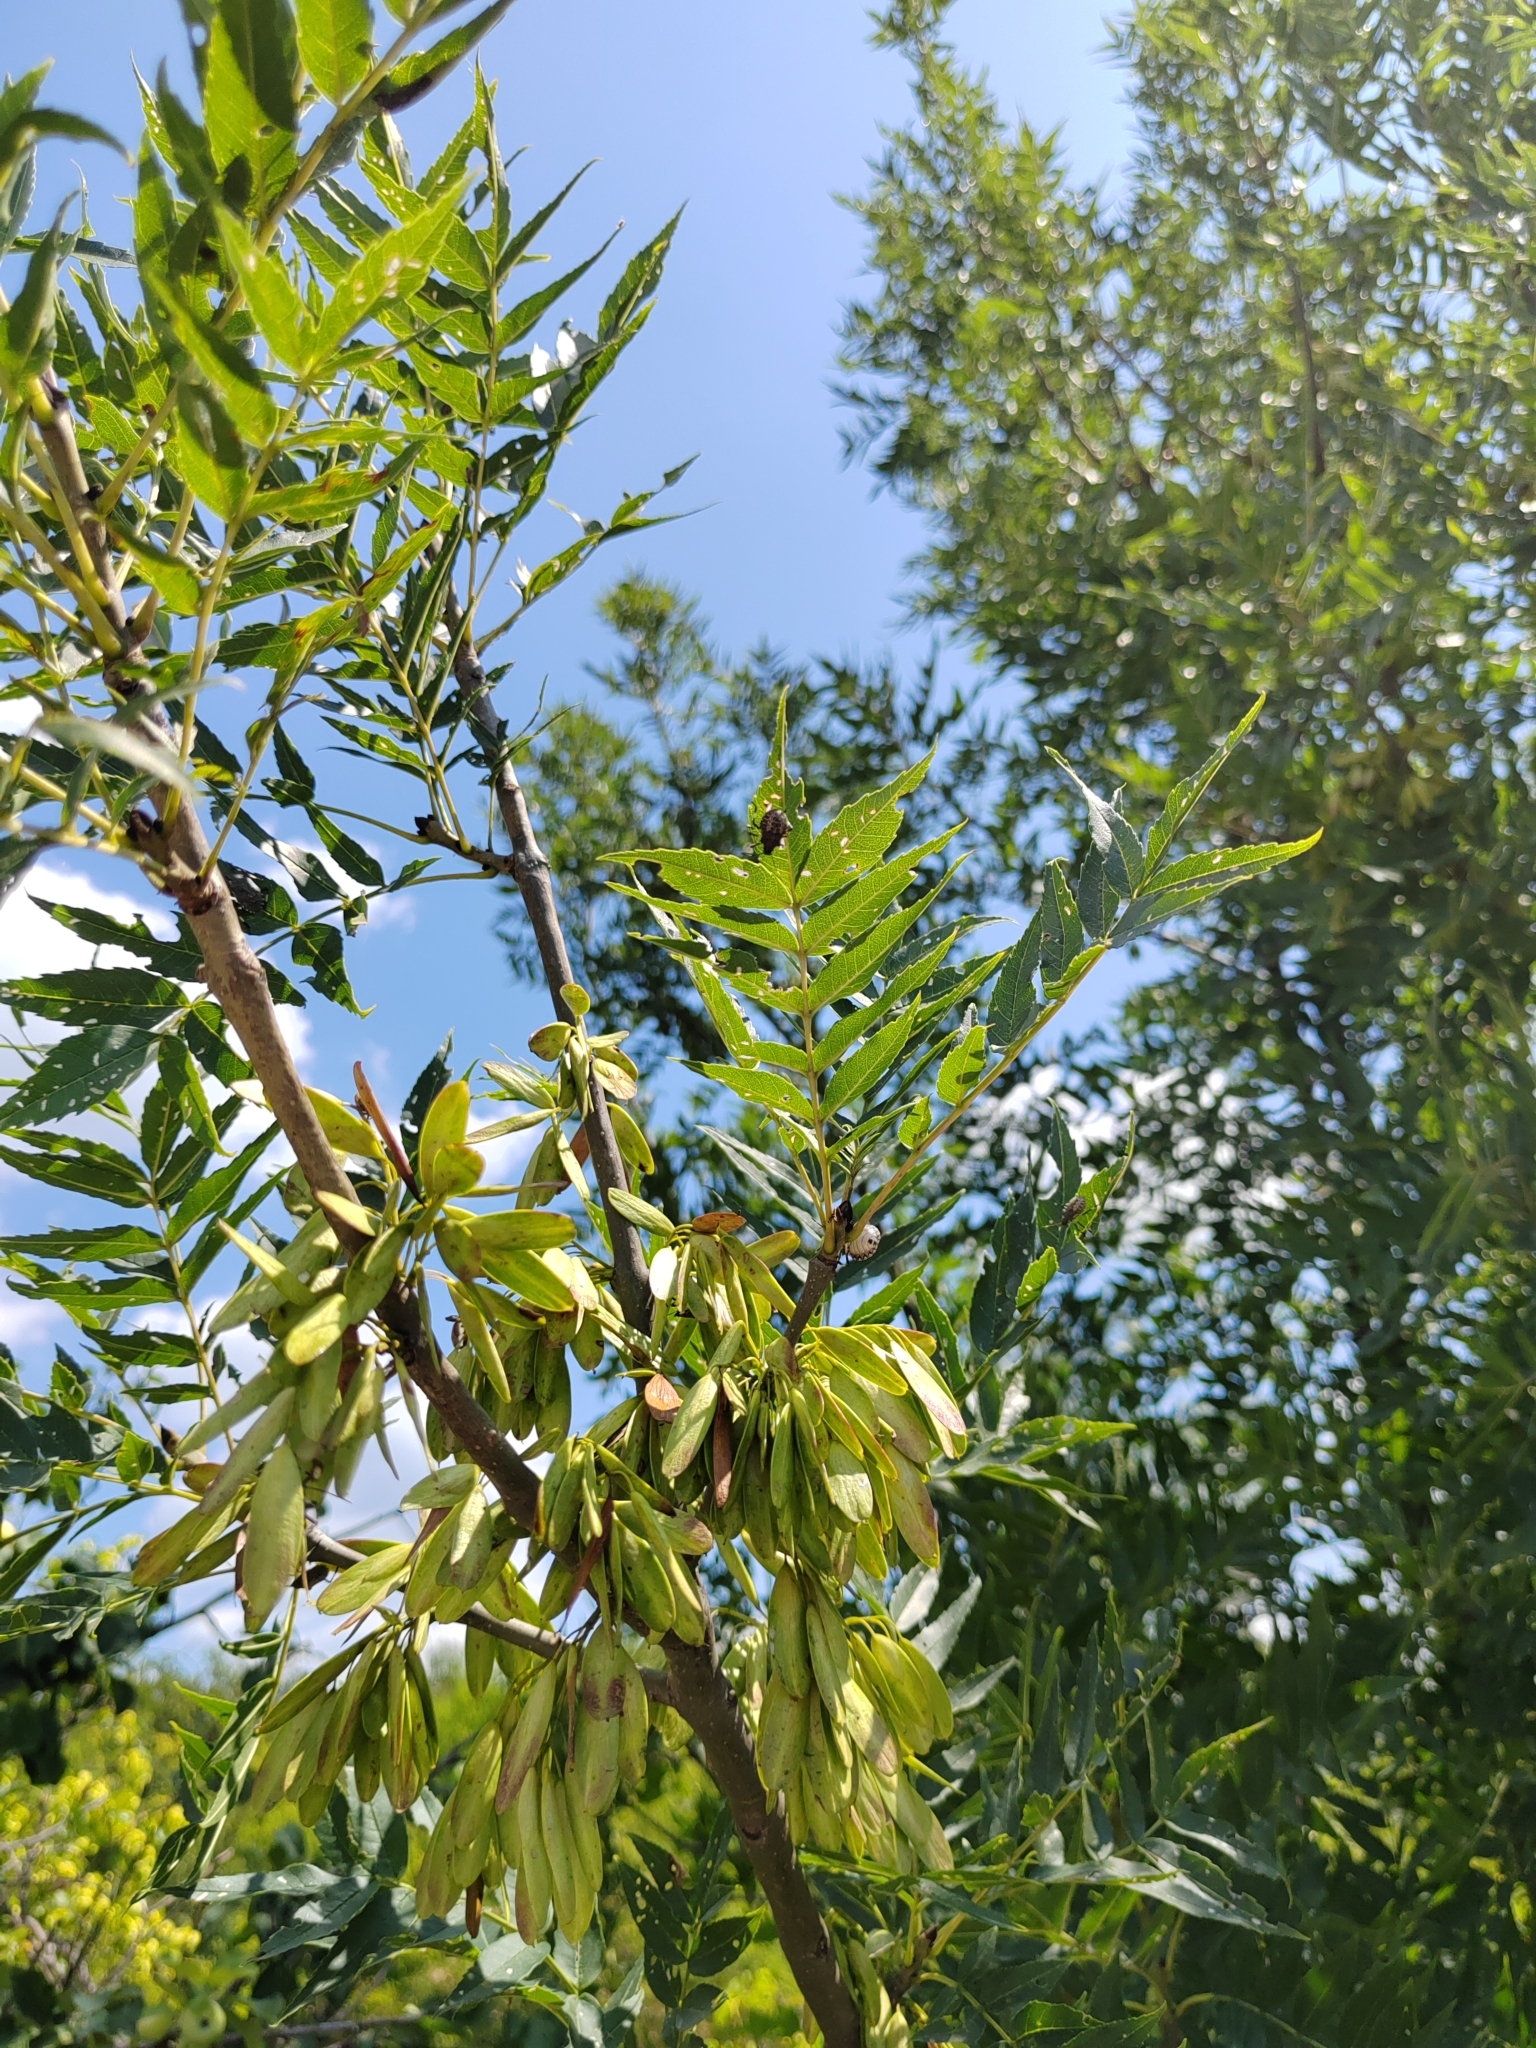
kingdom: Plantae
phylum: Tracheophyta
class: Magnoliopsida
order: Lamiales
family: Oleaceae
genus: Fraxinus
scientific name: Fraxinus excelsior
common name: European ash
